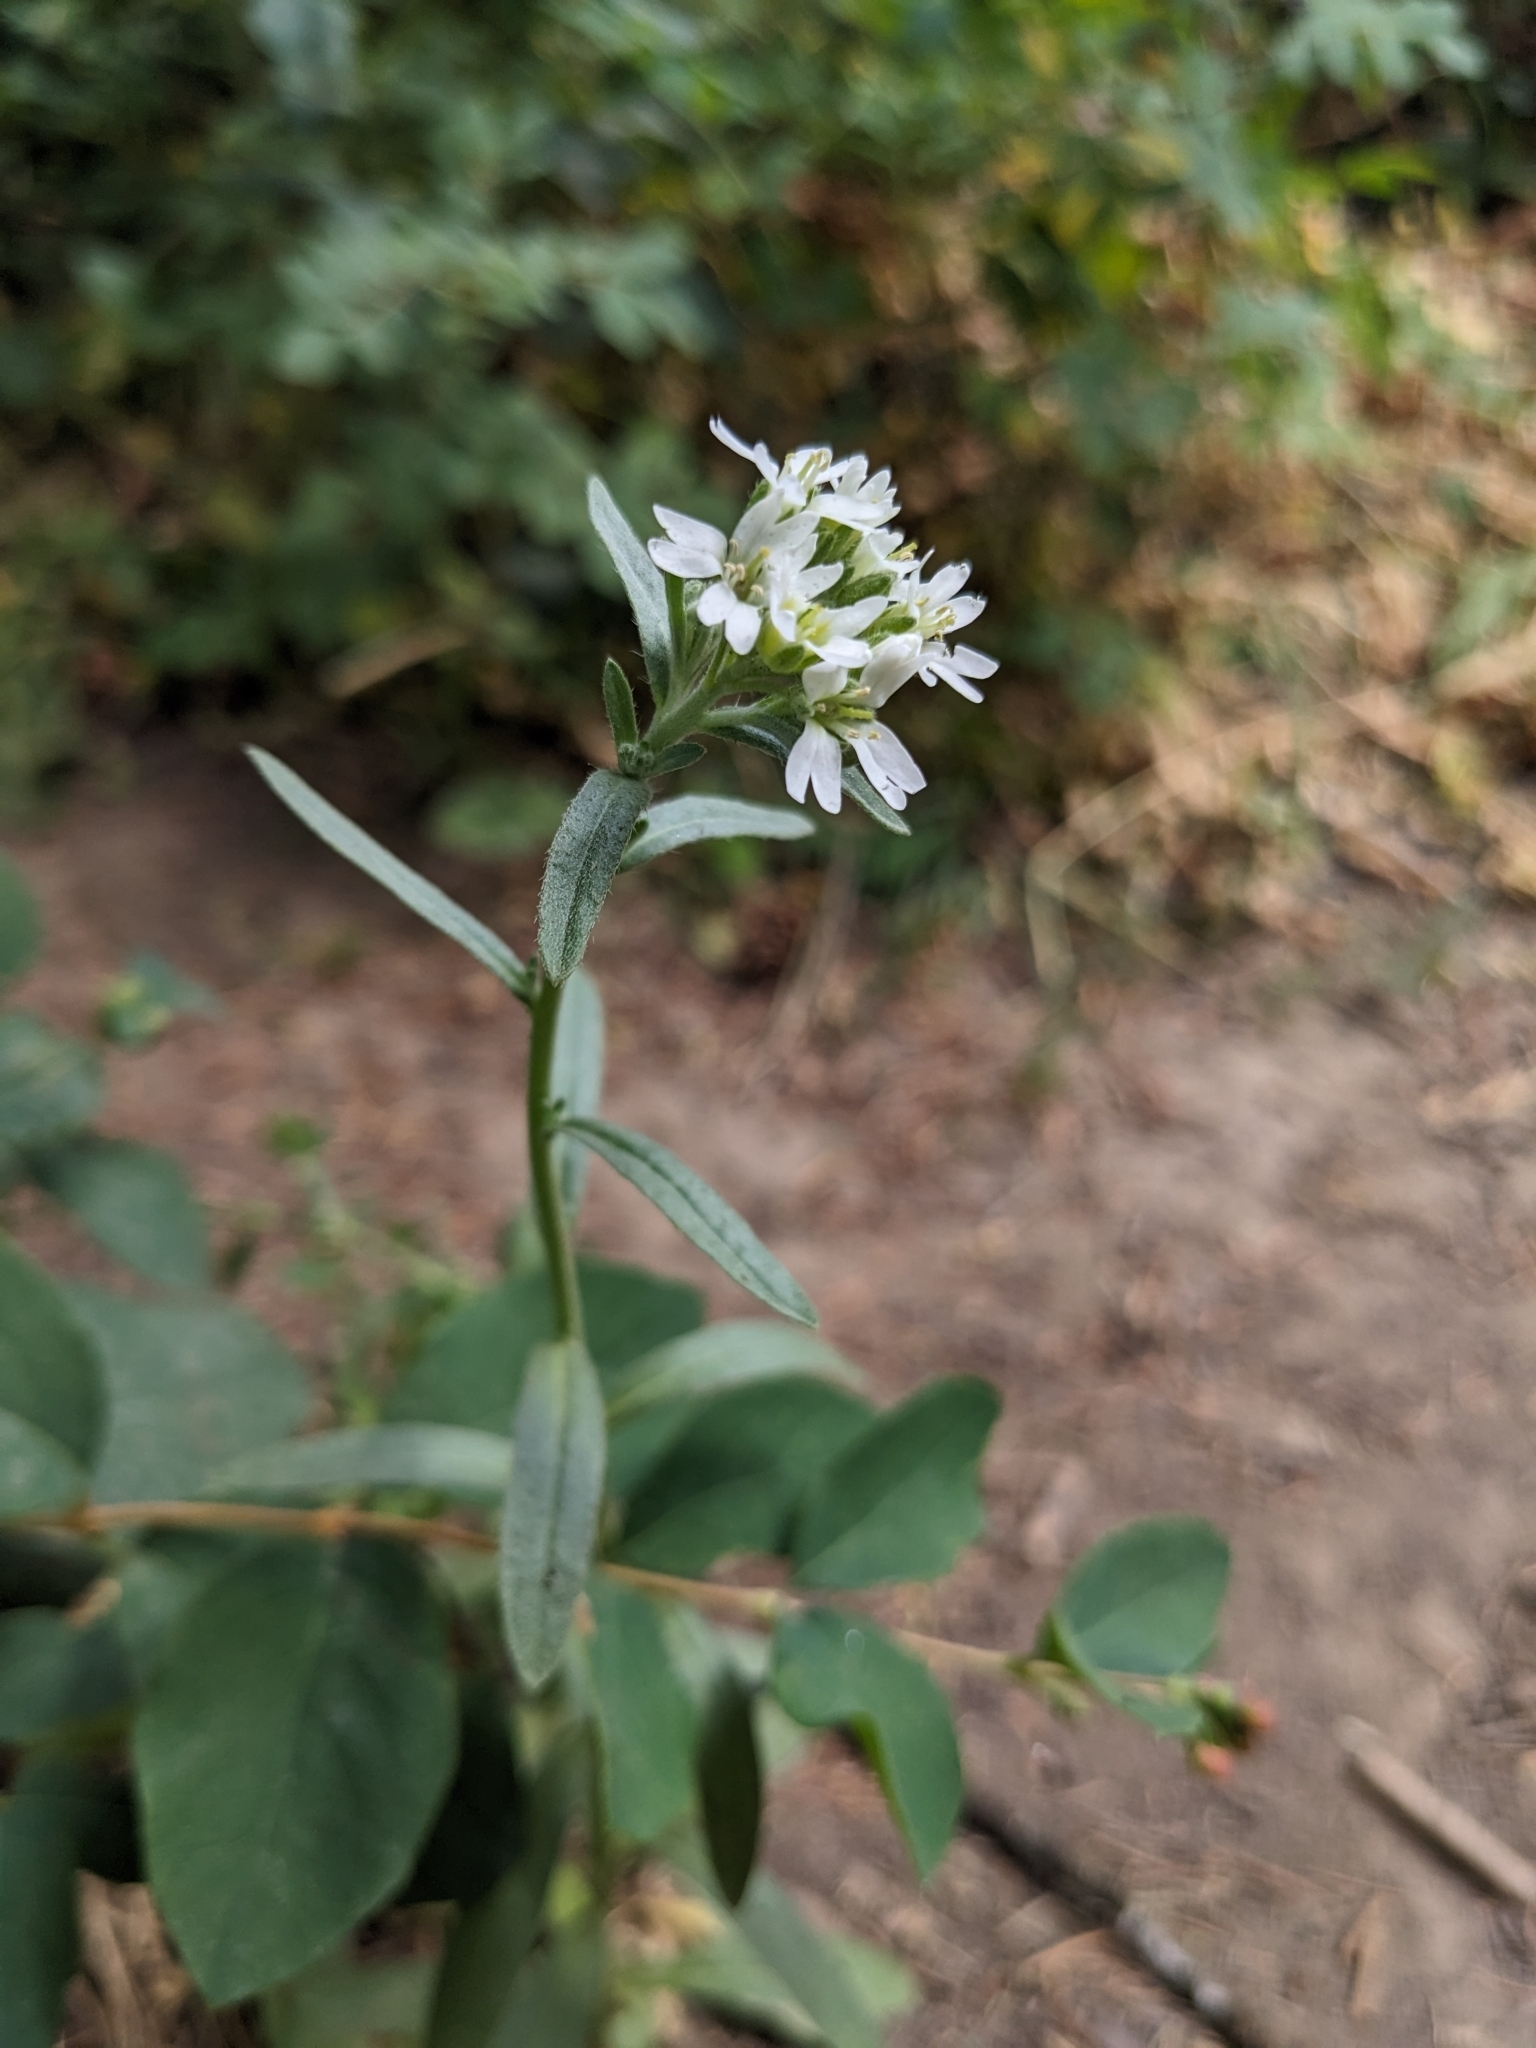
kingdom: Plantae
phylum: Tracheophyta
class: Magnoliopsida
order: Brassicales
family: Brassicaceae
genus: Berteroa
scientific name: Berteroa incana
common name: Hoary alison
